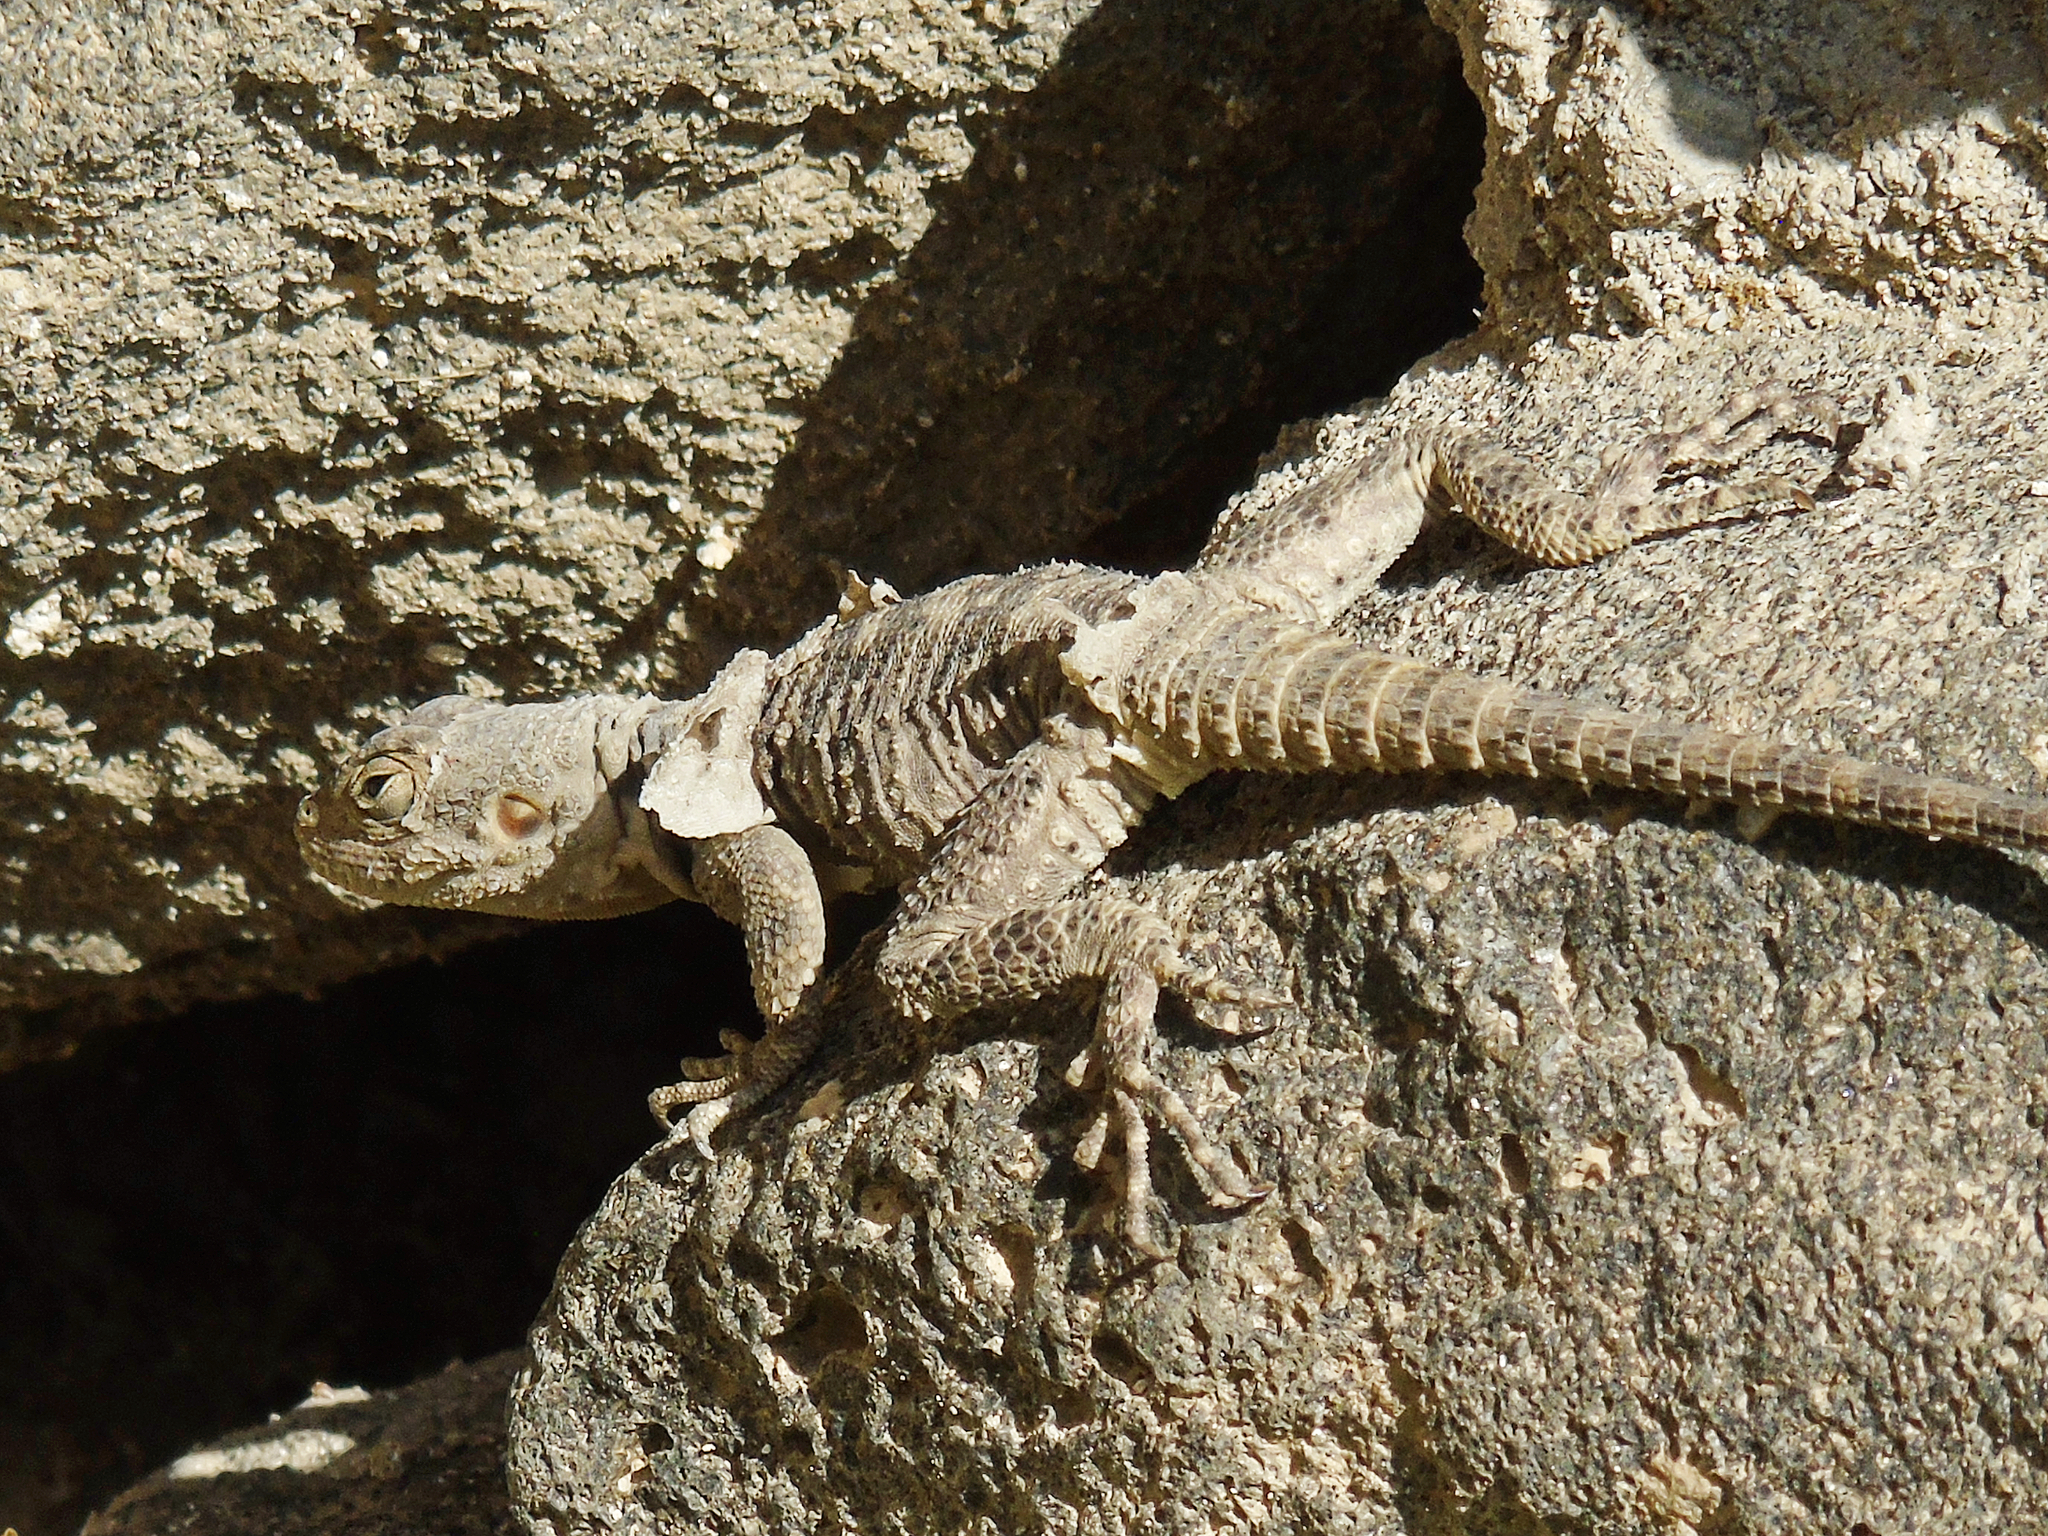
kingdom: Animalia
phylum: Chordata
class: Squamata
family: Agamidae
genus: Stellagama
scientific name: Stellagama stellio
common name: Starred agama
